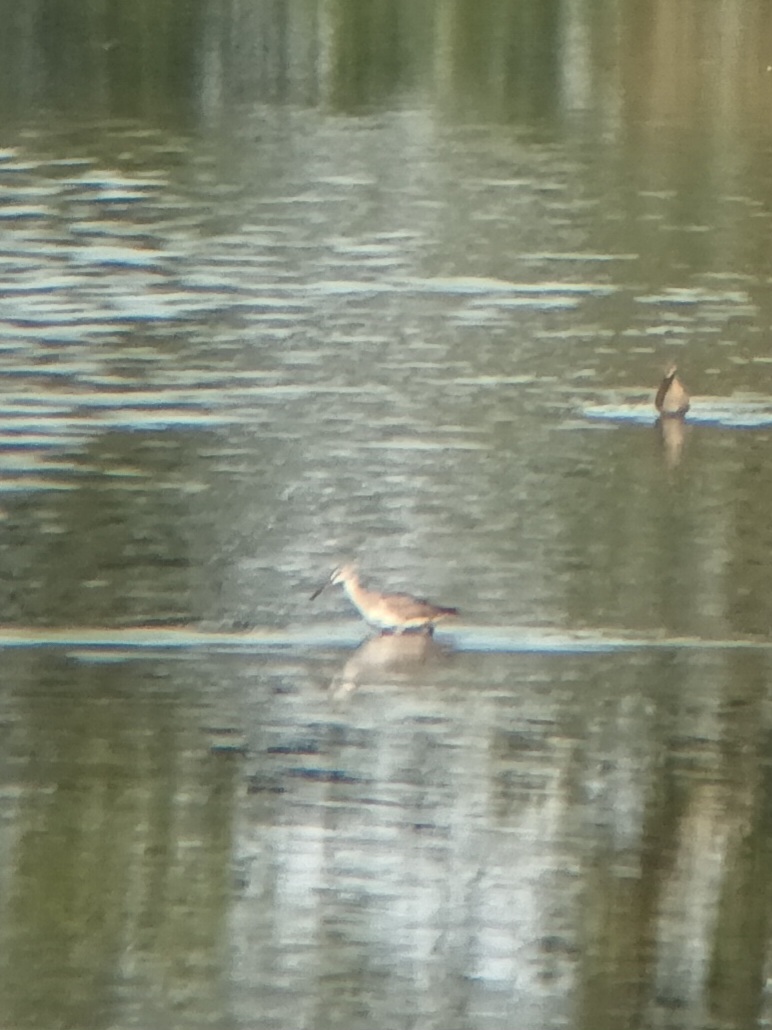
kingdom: Animalia
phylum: Chordata
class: Aves
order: Charadriiformes
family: Scolopacidae
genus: Tringa
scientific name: Tringa erythropus
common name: Spotted redshank
